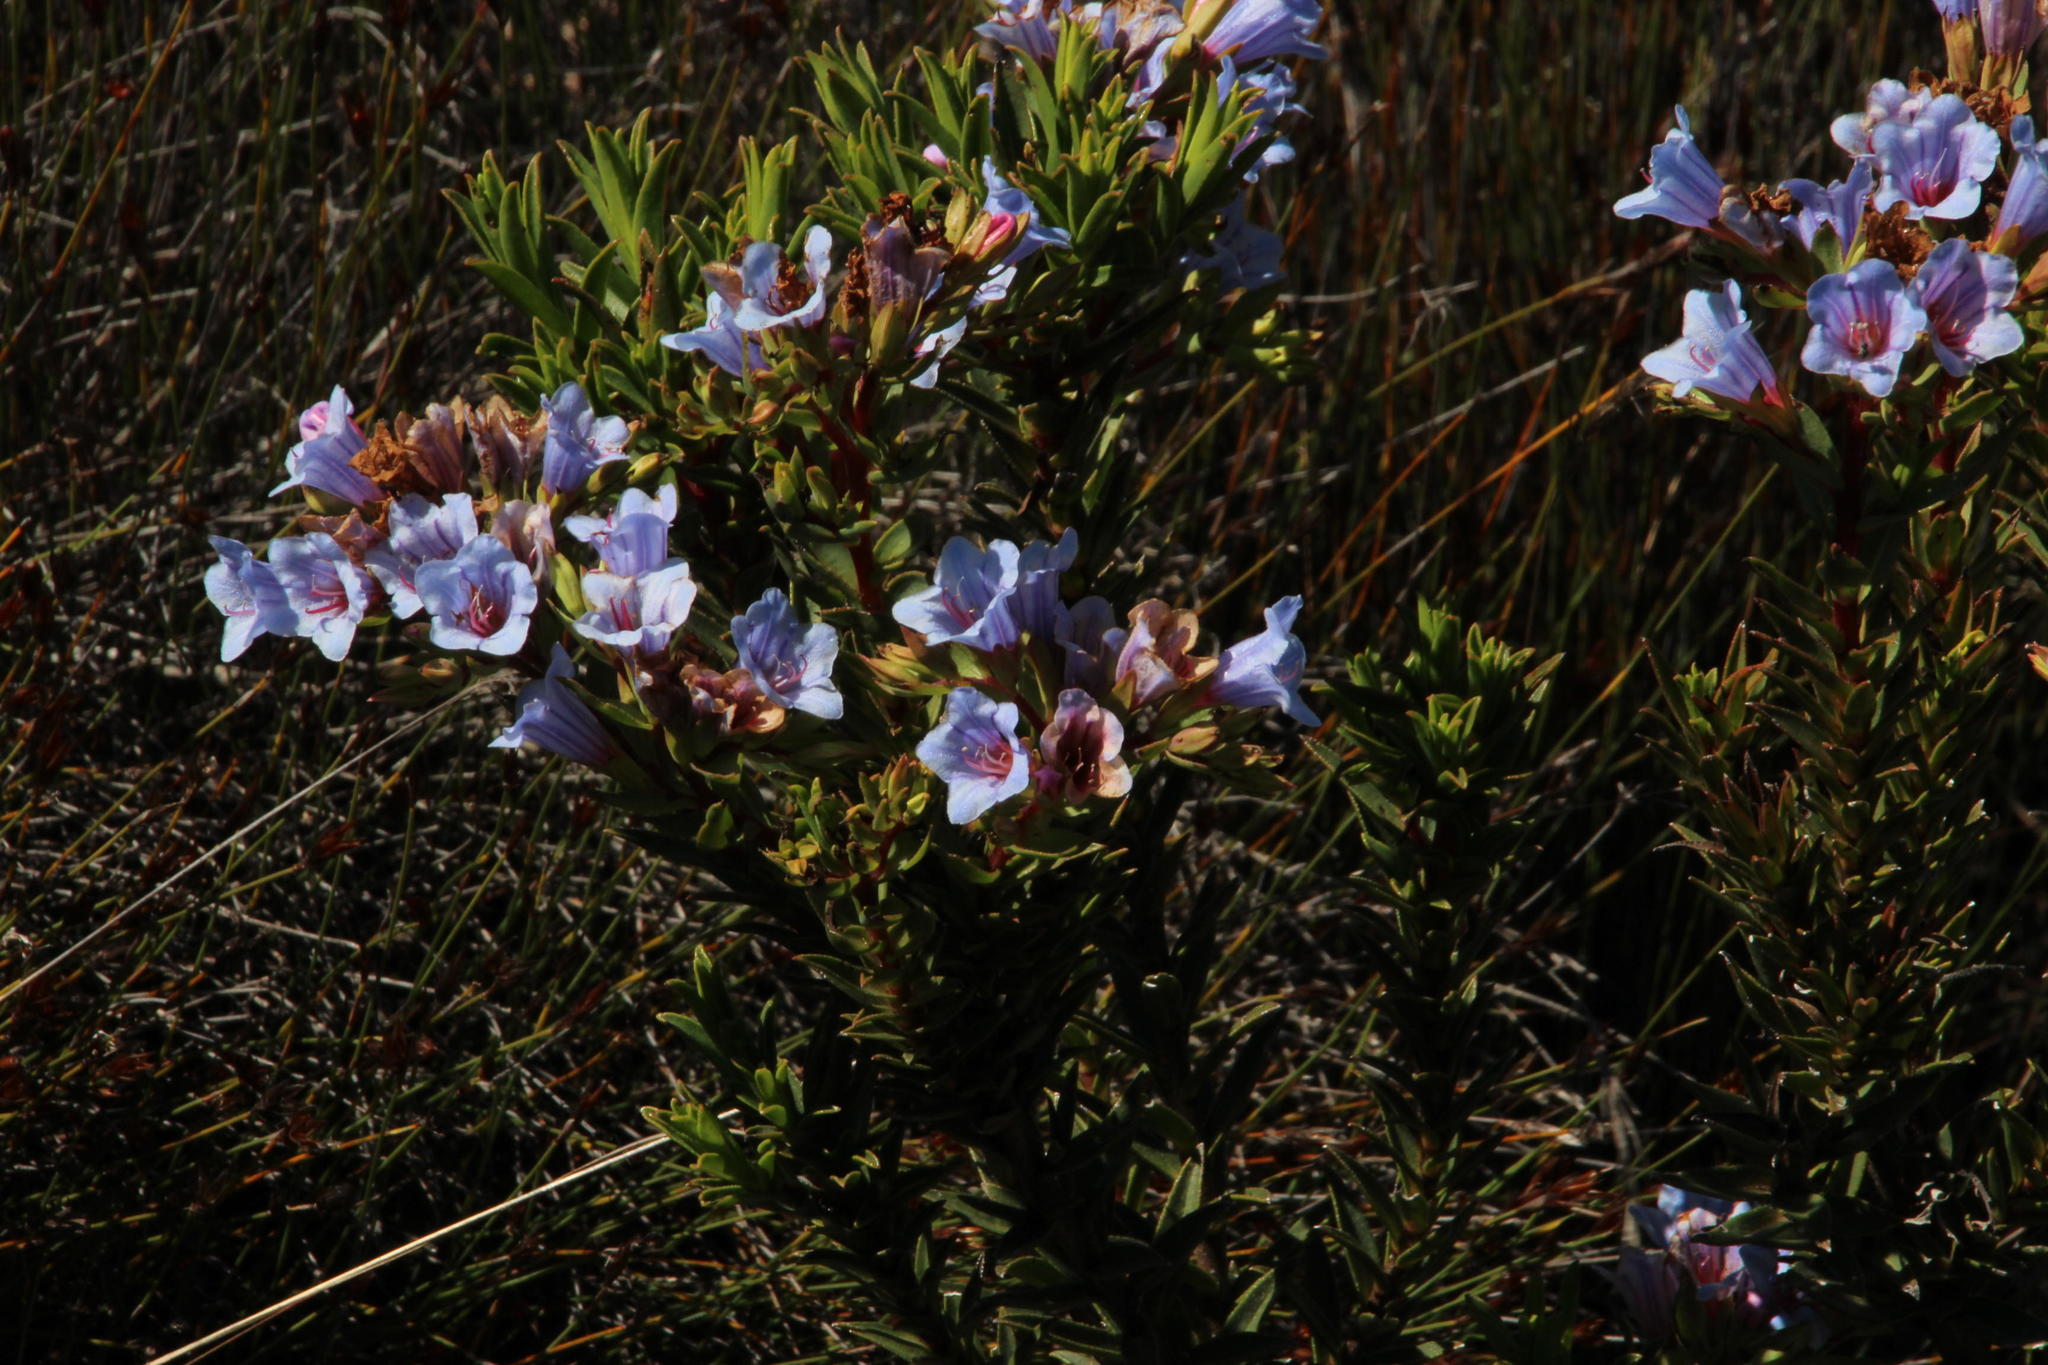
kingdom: Plantae
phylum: Tracheophyta
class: Magnoliopsida
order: Boraginales
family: Boraginaceae
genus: Lobostemon
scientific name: Lobostemon fruticosus
